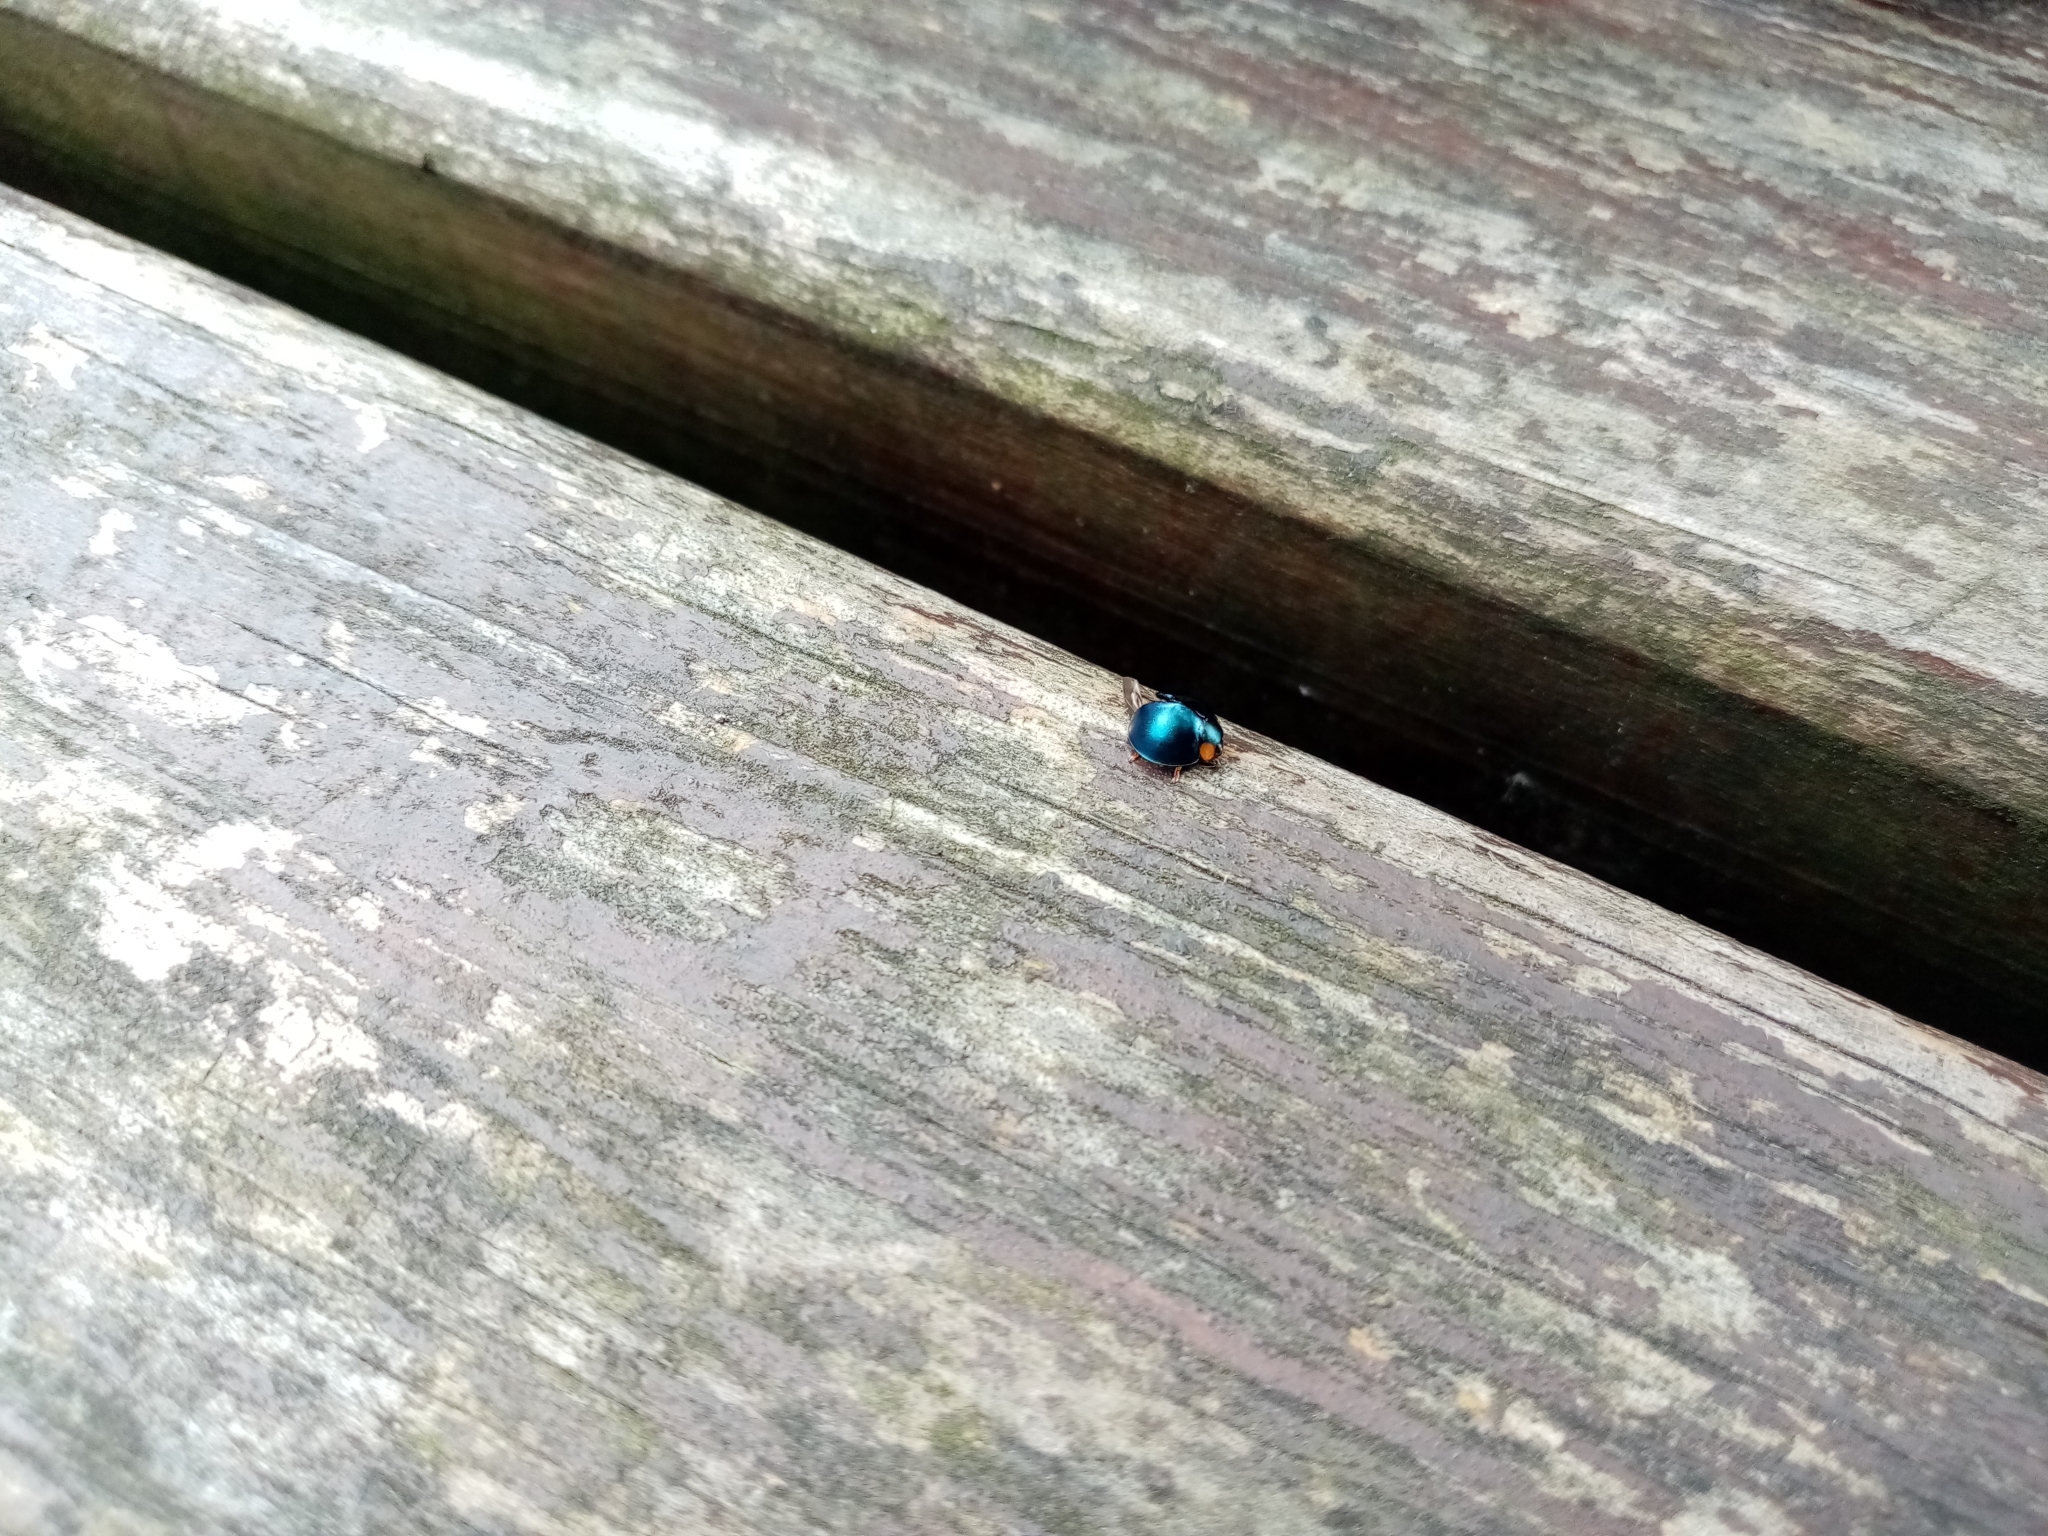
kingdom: Animalia
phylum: Arthropoda
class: Insecta
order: Coleoptera
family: Coccinellidae
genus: Curinus
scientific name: Curinus coeruleus
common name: Ladybird beetle
